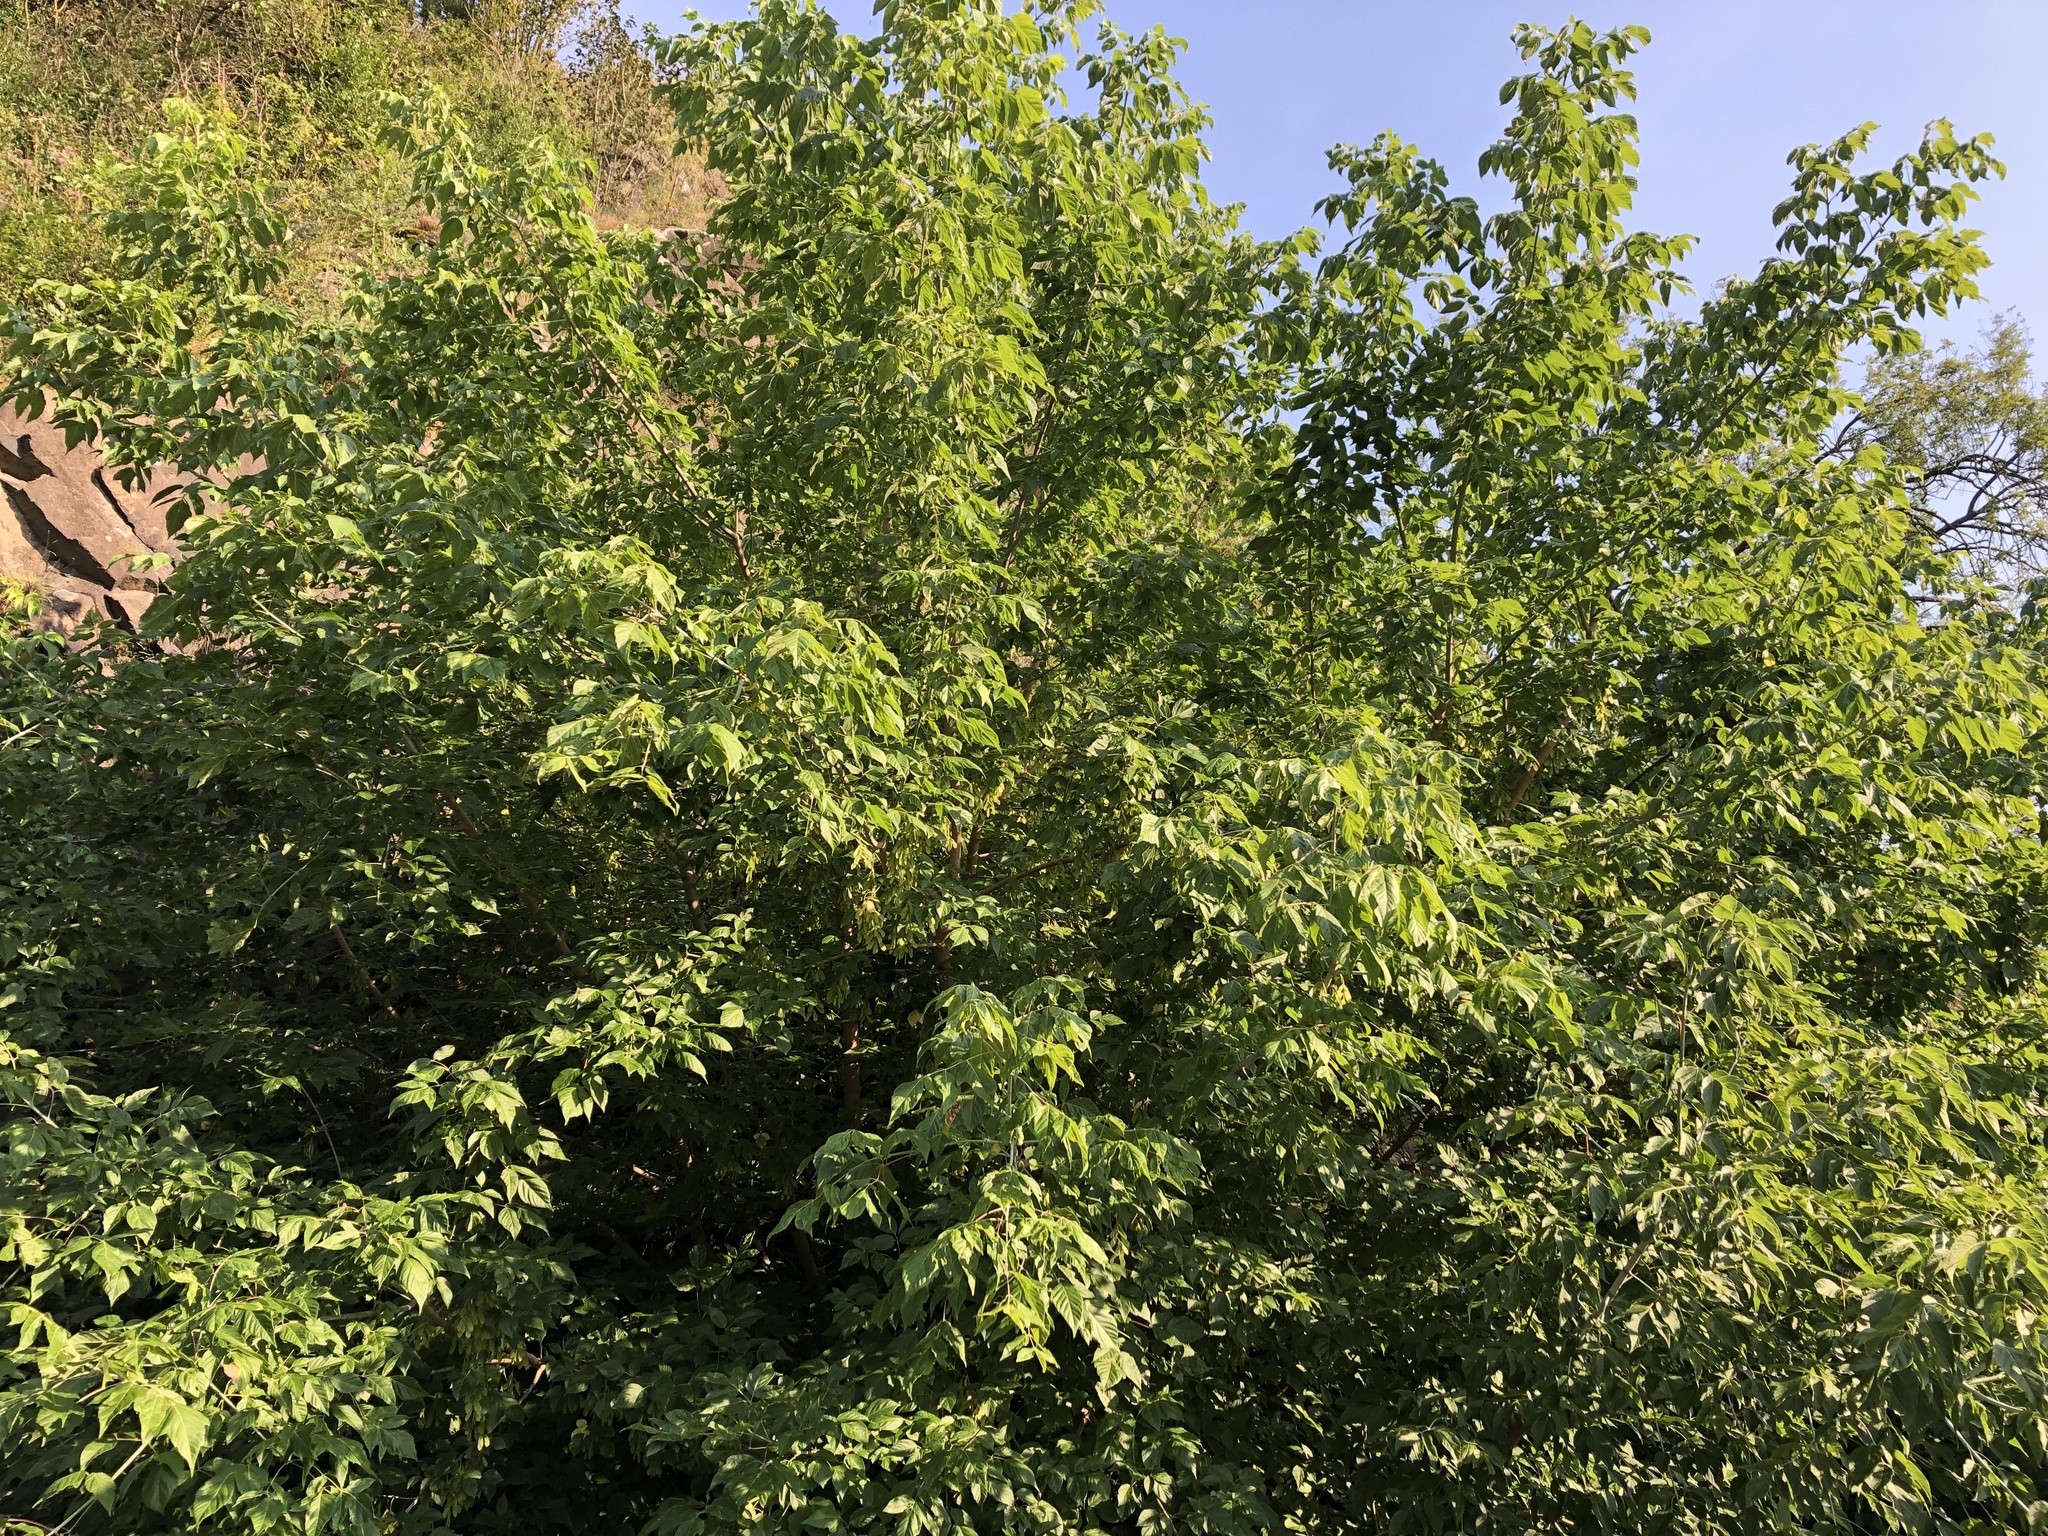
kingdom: Plantae
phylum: Tracheophyta
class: Magnoliopsida
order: Sapindales
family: Sapindaceae
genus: Acer
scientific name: Acer negundo
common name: Ashleaf maple
